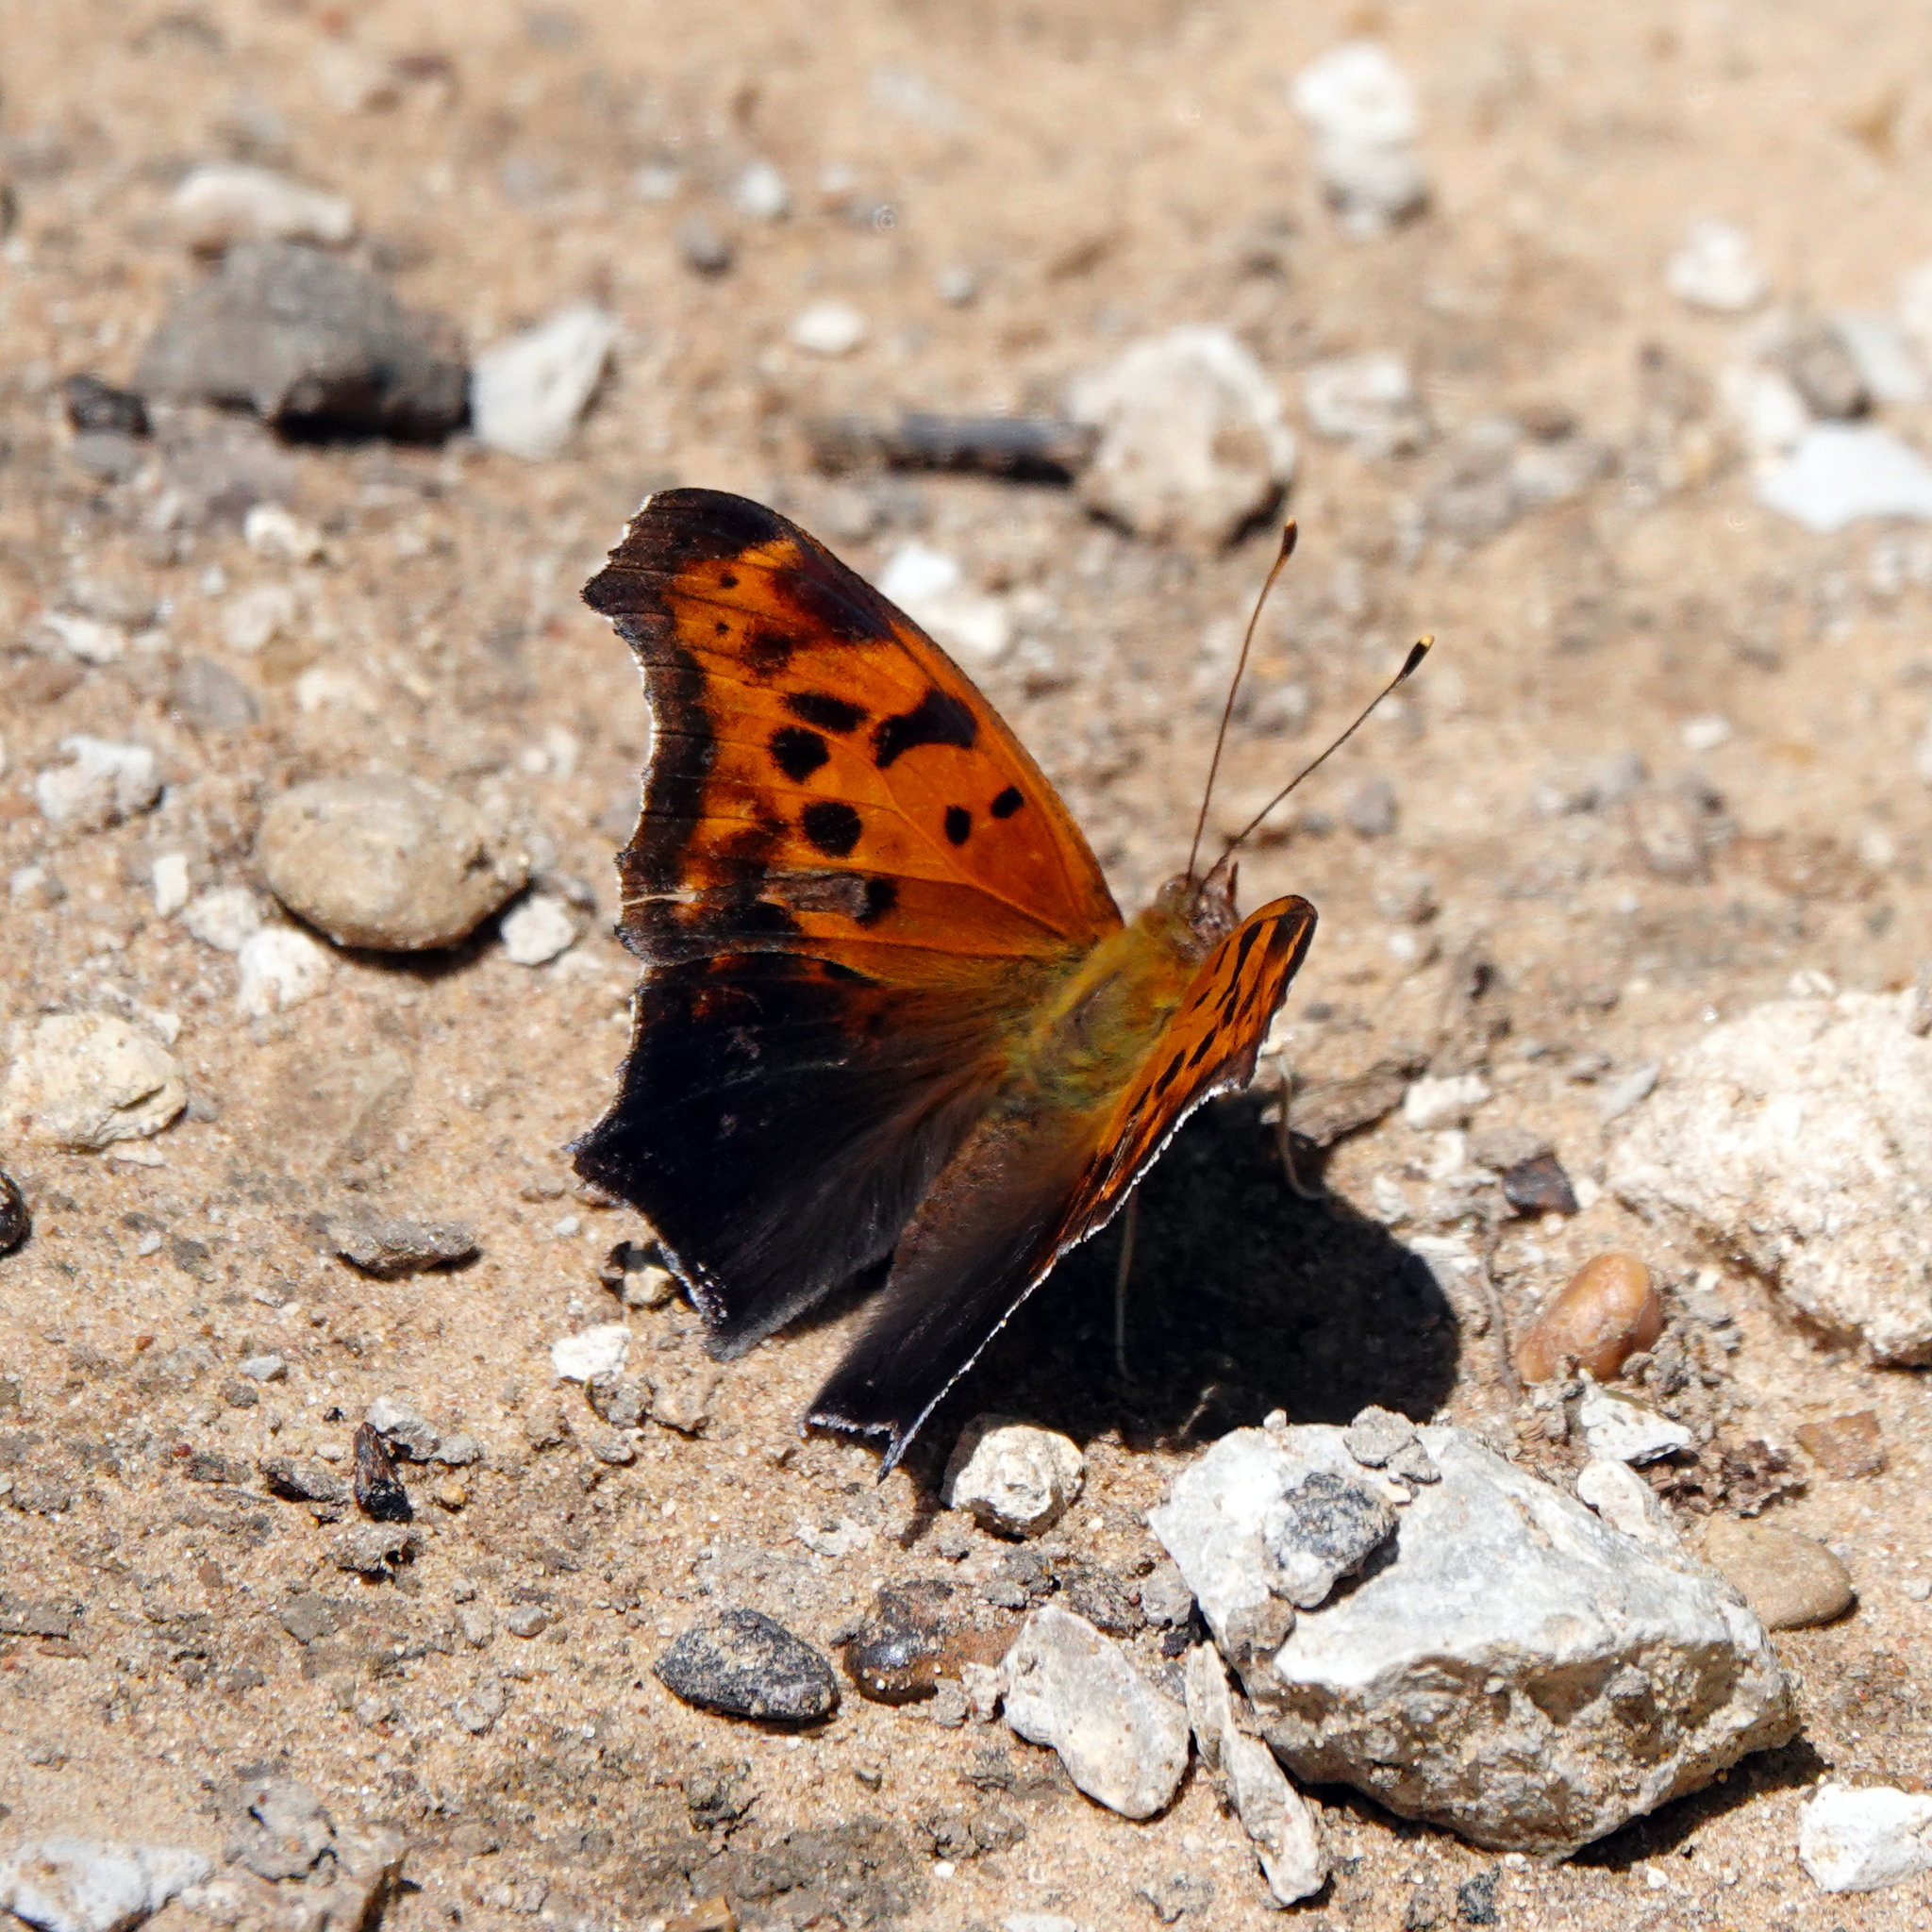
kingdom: Animalia
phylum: Arthropoda
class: Insecta
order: Lepidoptera
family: Nymphalidae
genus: Polygonia
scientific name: Polygonia interrogationis
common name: Question mark
